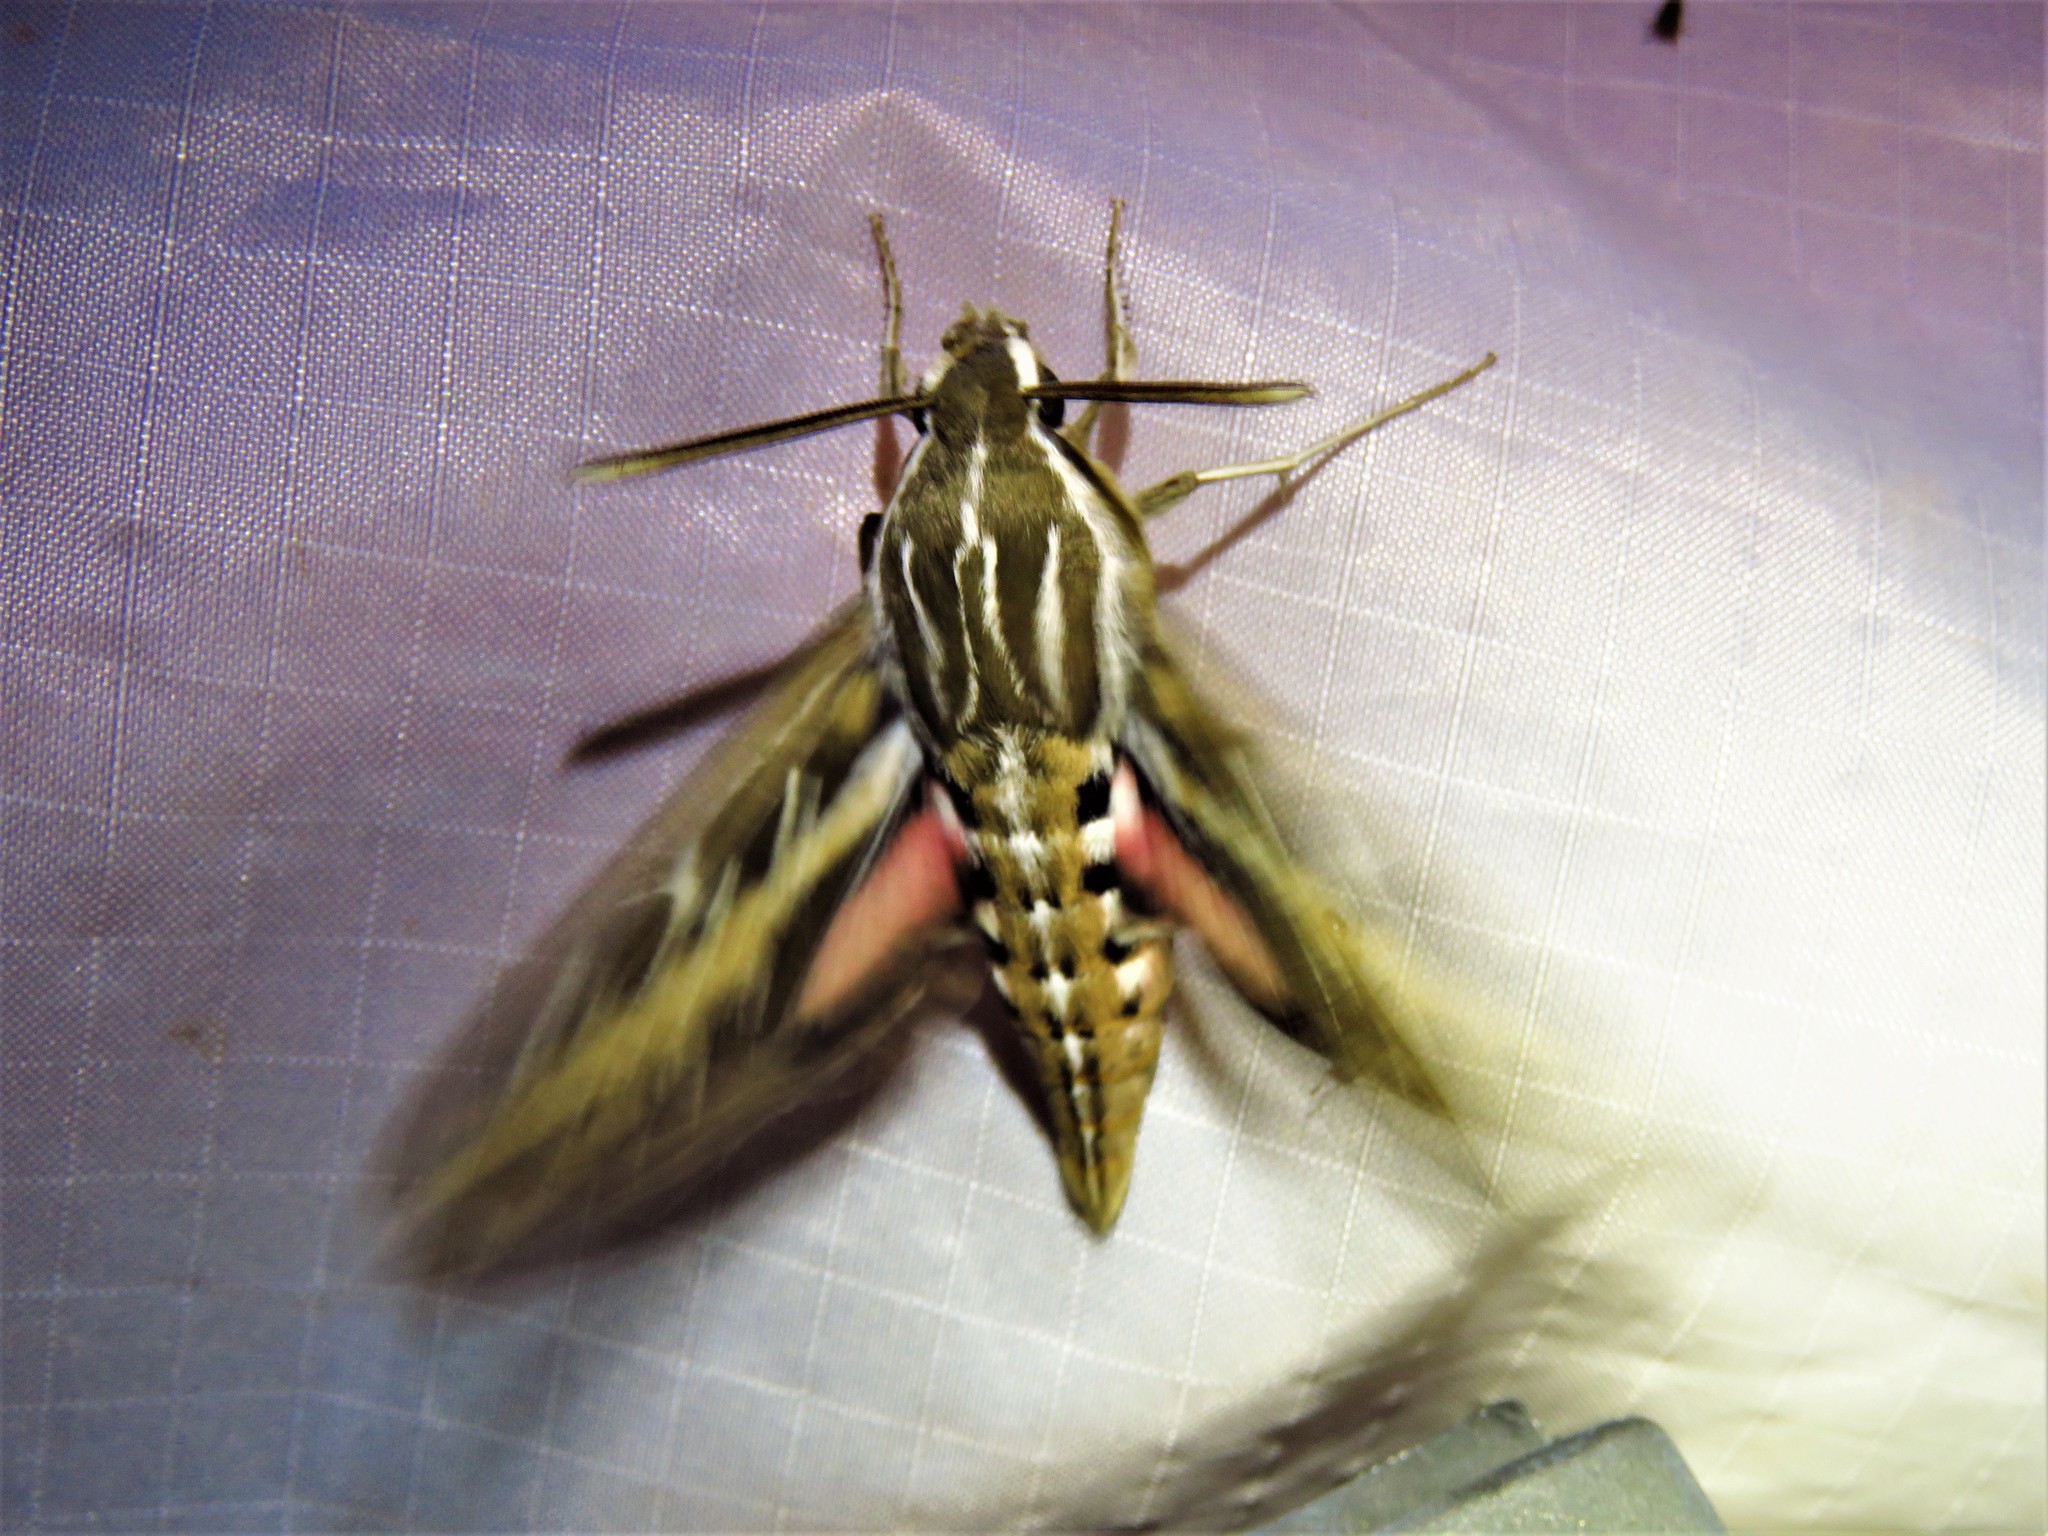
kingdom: Animalia
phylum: Arthropoda
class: Insecta
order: Lepidoptera
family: Sphingidae
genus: Hyles
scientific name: Hyles lineata
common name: White-lined sphinx
